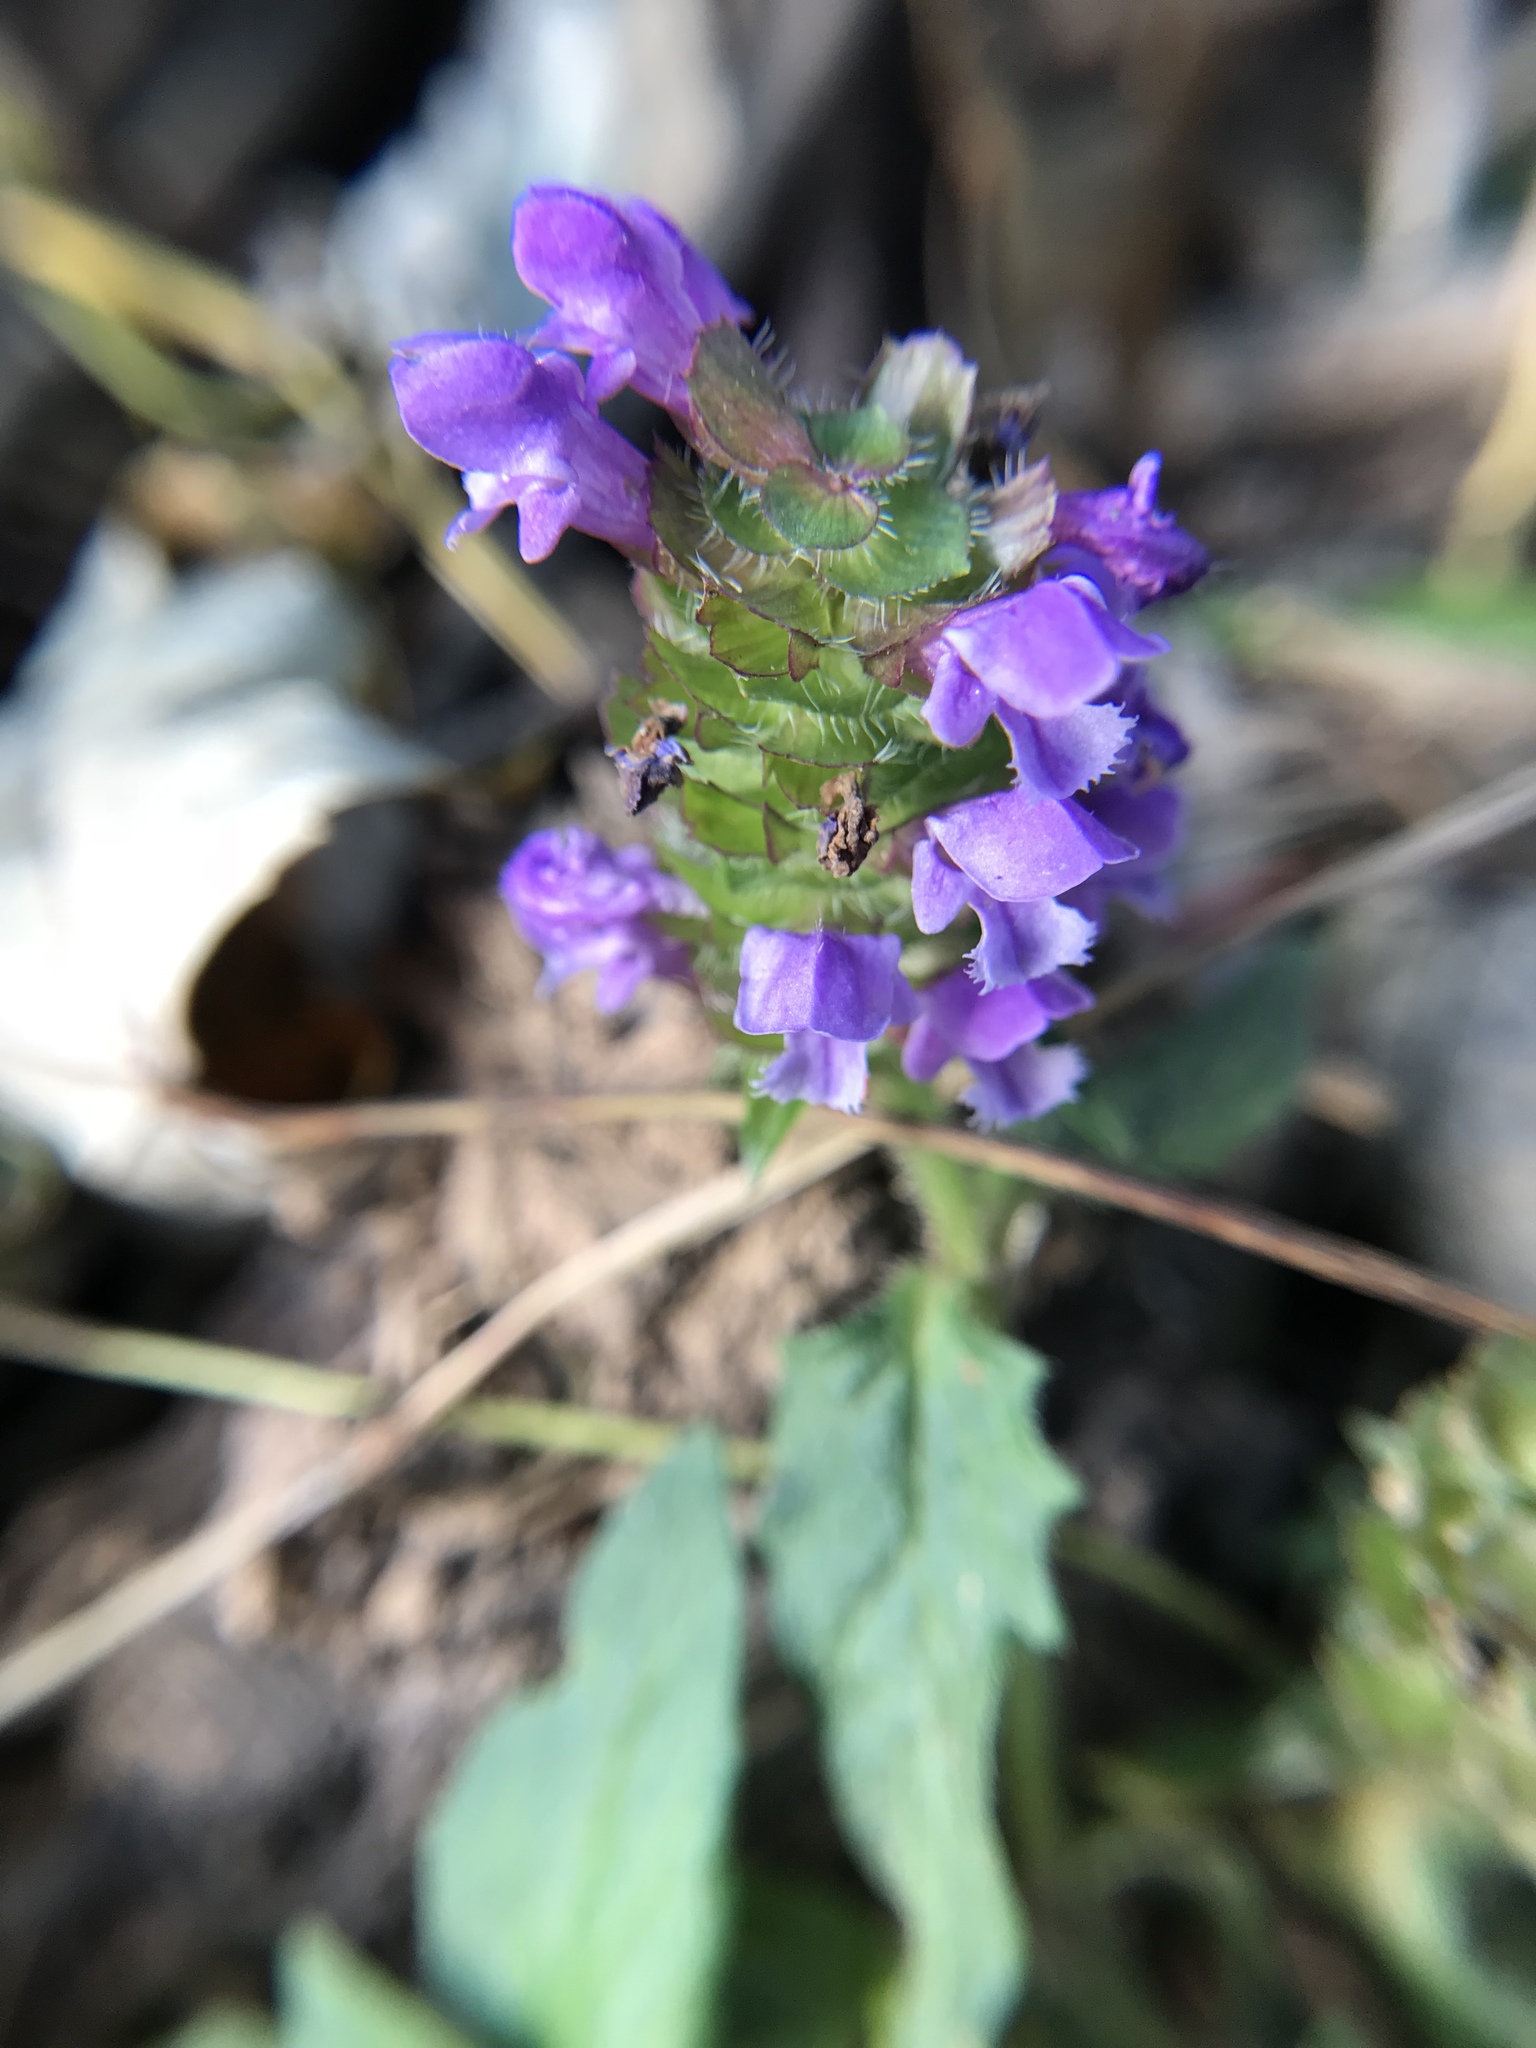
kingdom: Plantae
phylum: Tracheophyta
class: Magnoliopsida
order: Lamiales
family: Lamiaceae
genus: Prunella
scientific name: Prunella vulgaris
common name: Heal-all
